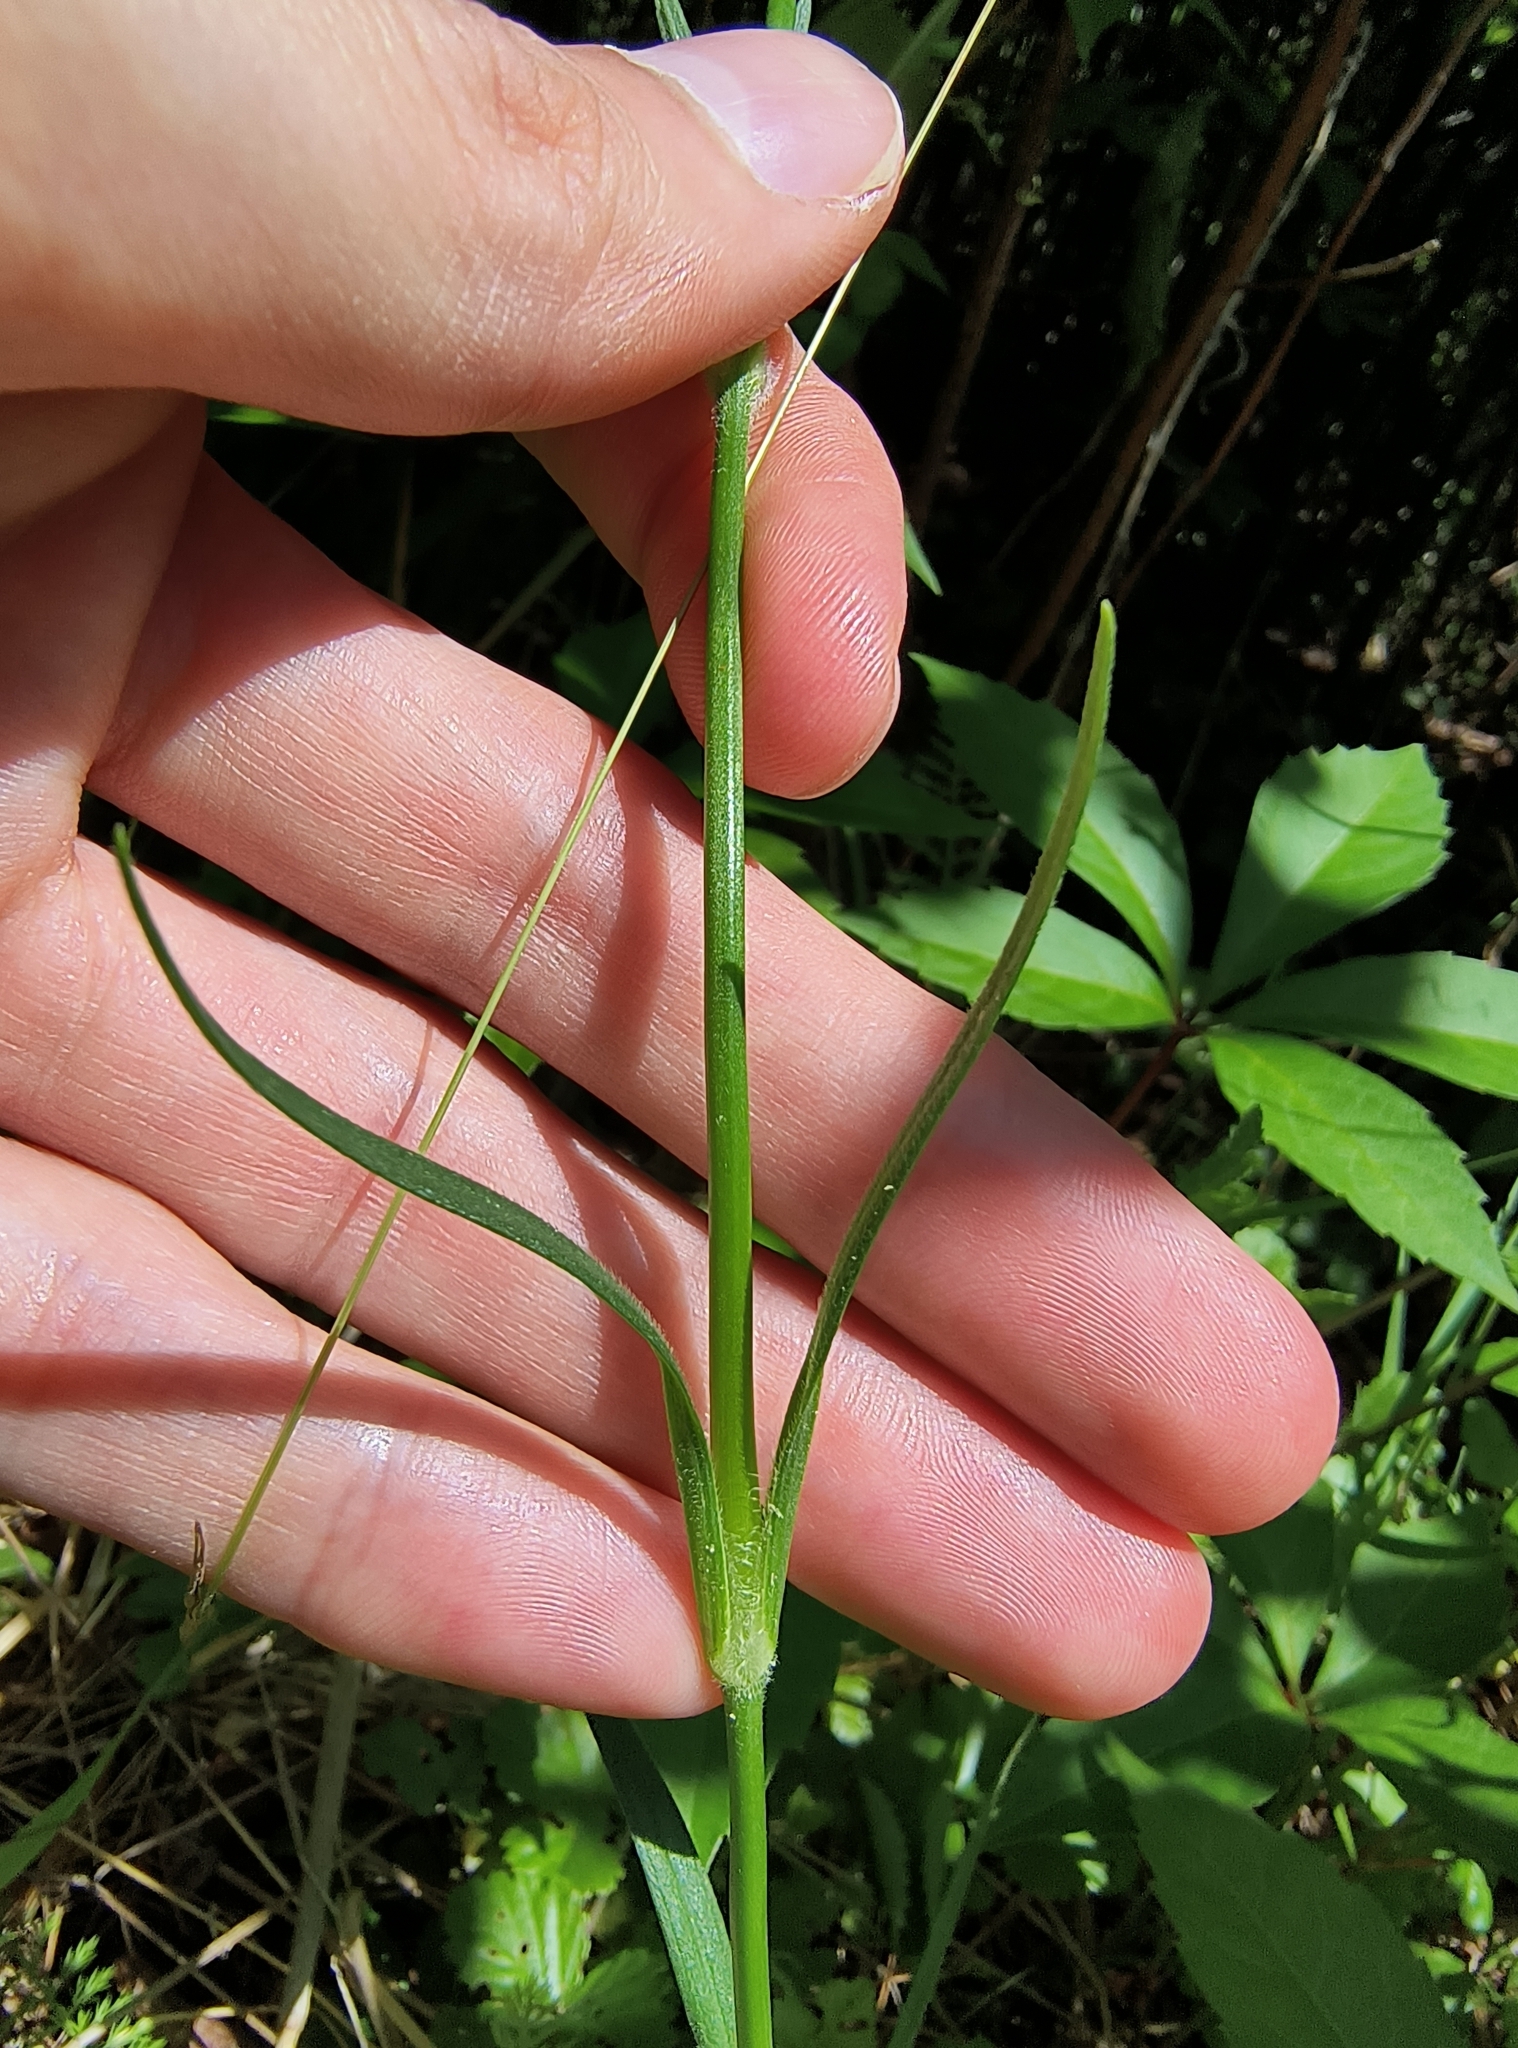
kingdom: Plantae
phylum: Tracheophyta
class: Magnoliopsida
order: Caryophyllales
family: Caryophyllaceae
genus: Dianthus
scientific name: Dianthus armeria
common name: Deptford pink
